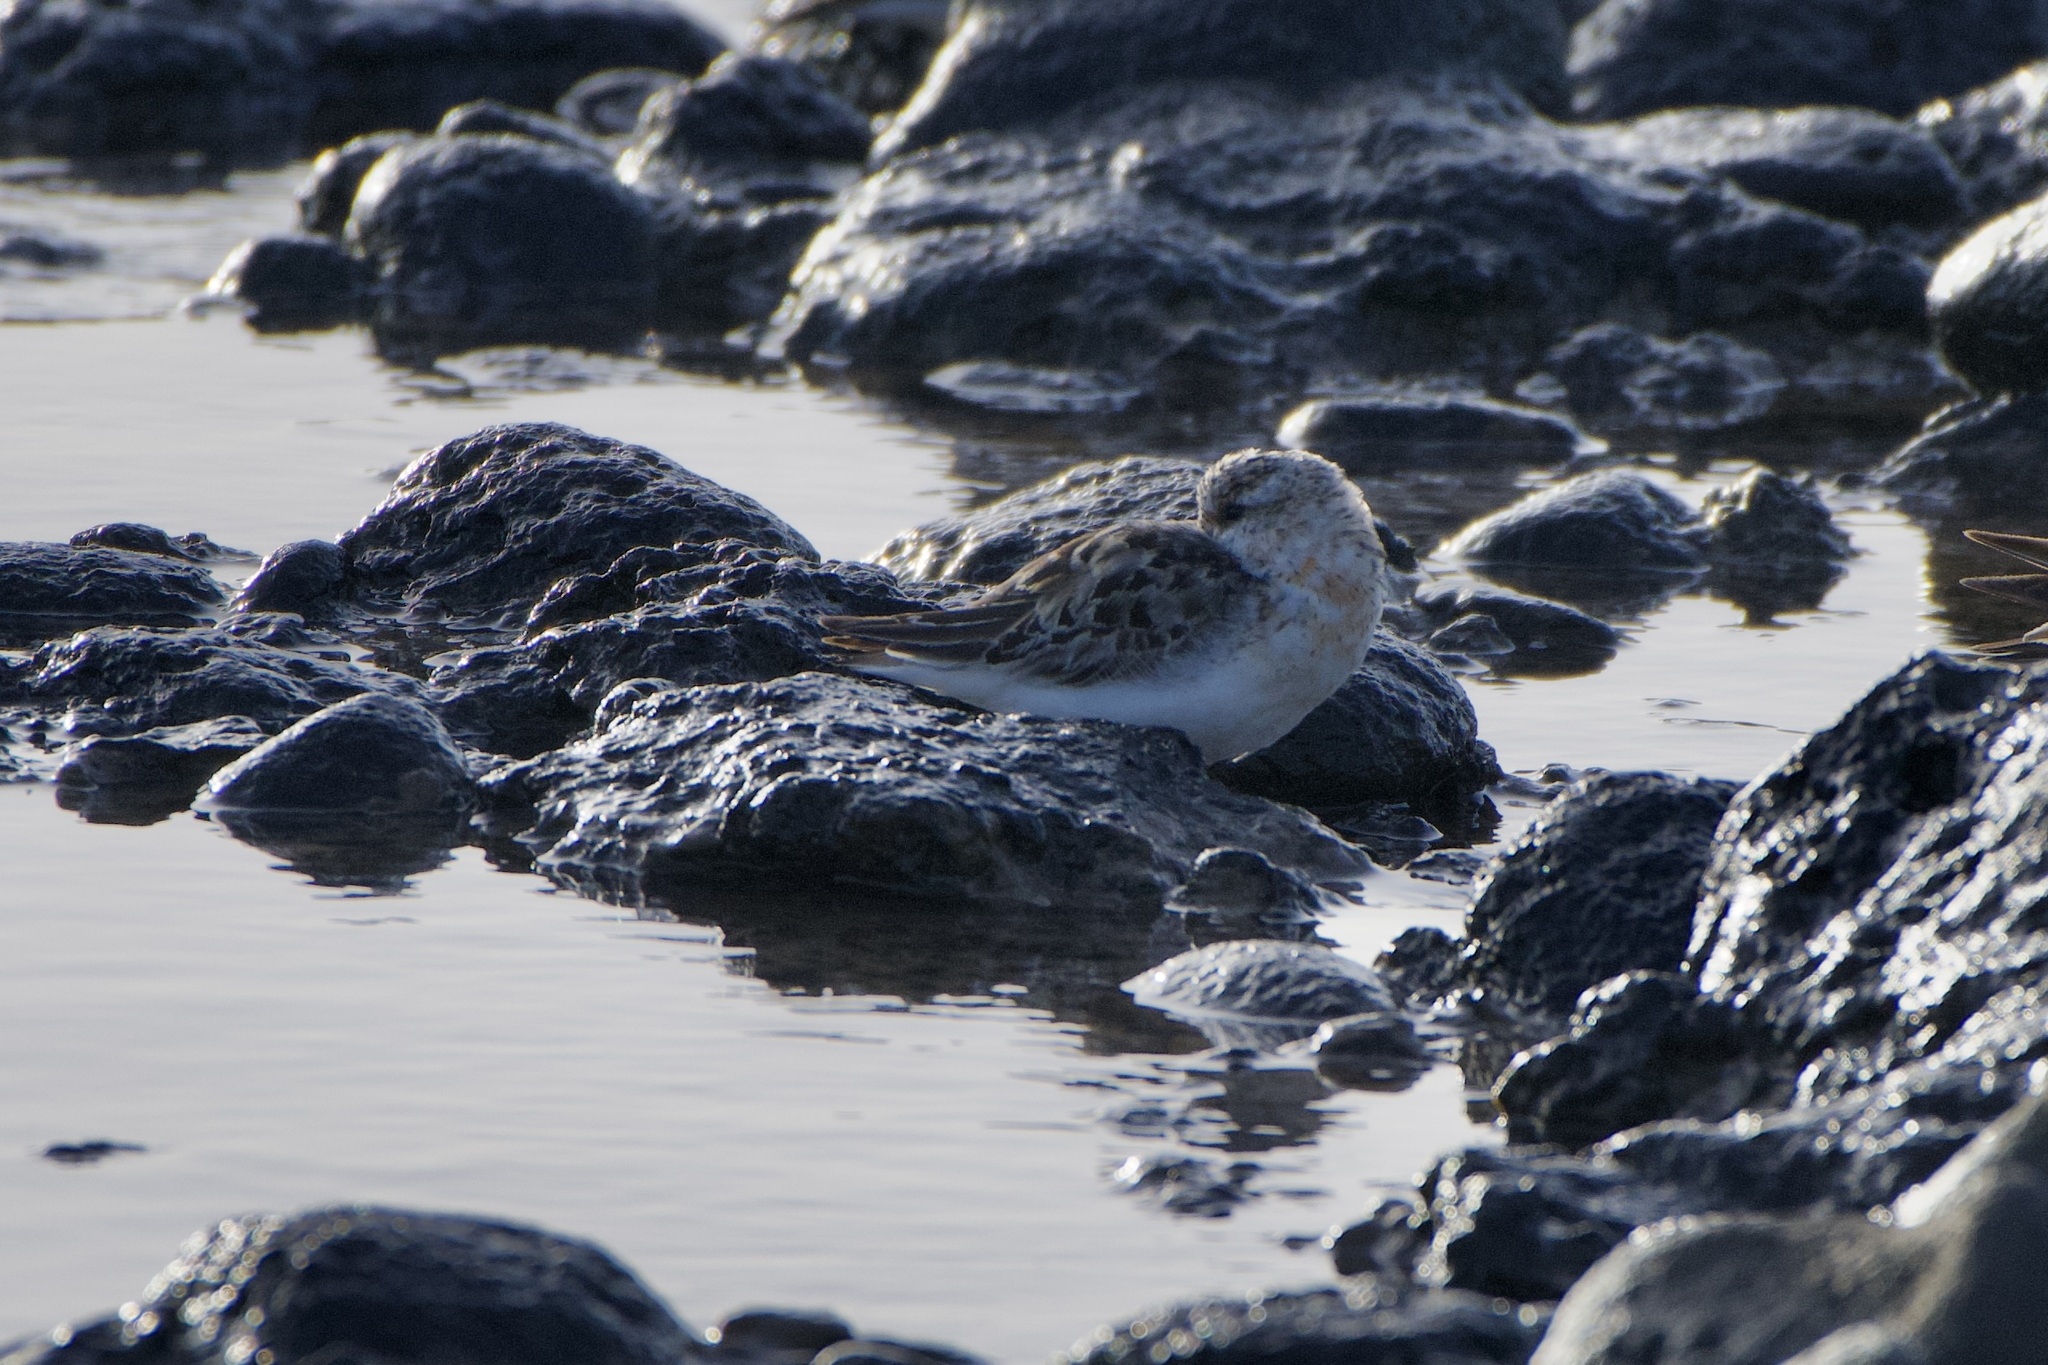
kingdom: Animalia
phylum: Chordata
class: Aves
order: Charadriiformes
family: Scolopacidae
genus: Calidris
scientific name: Calidris alba
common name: Sanderling
